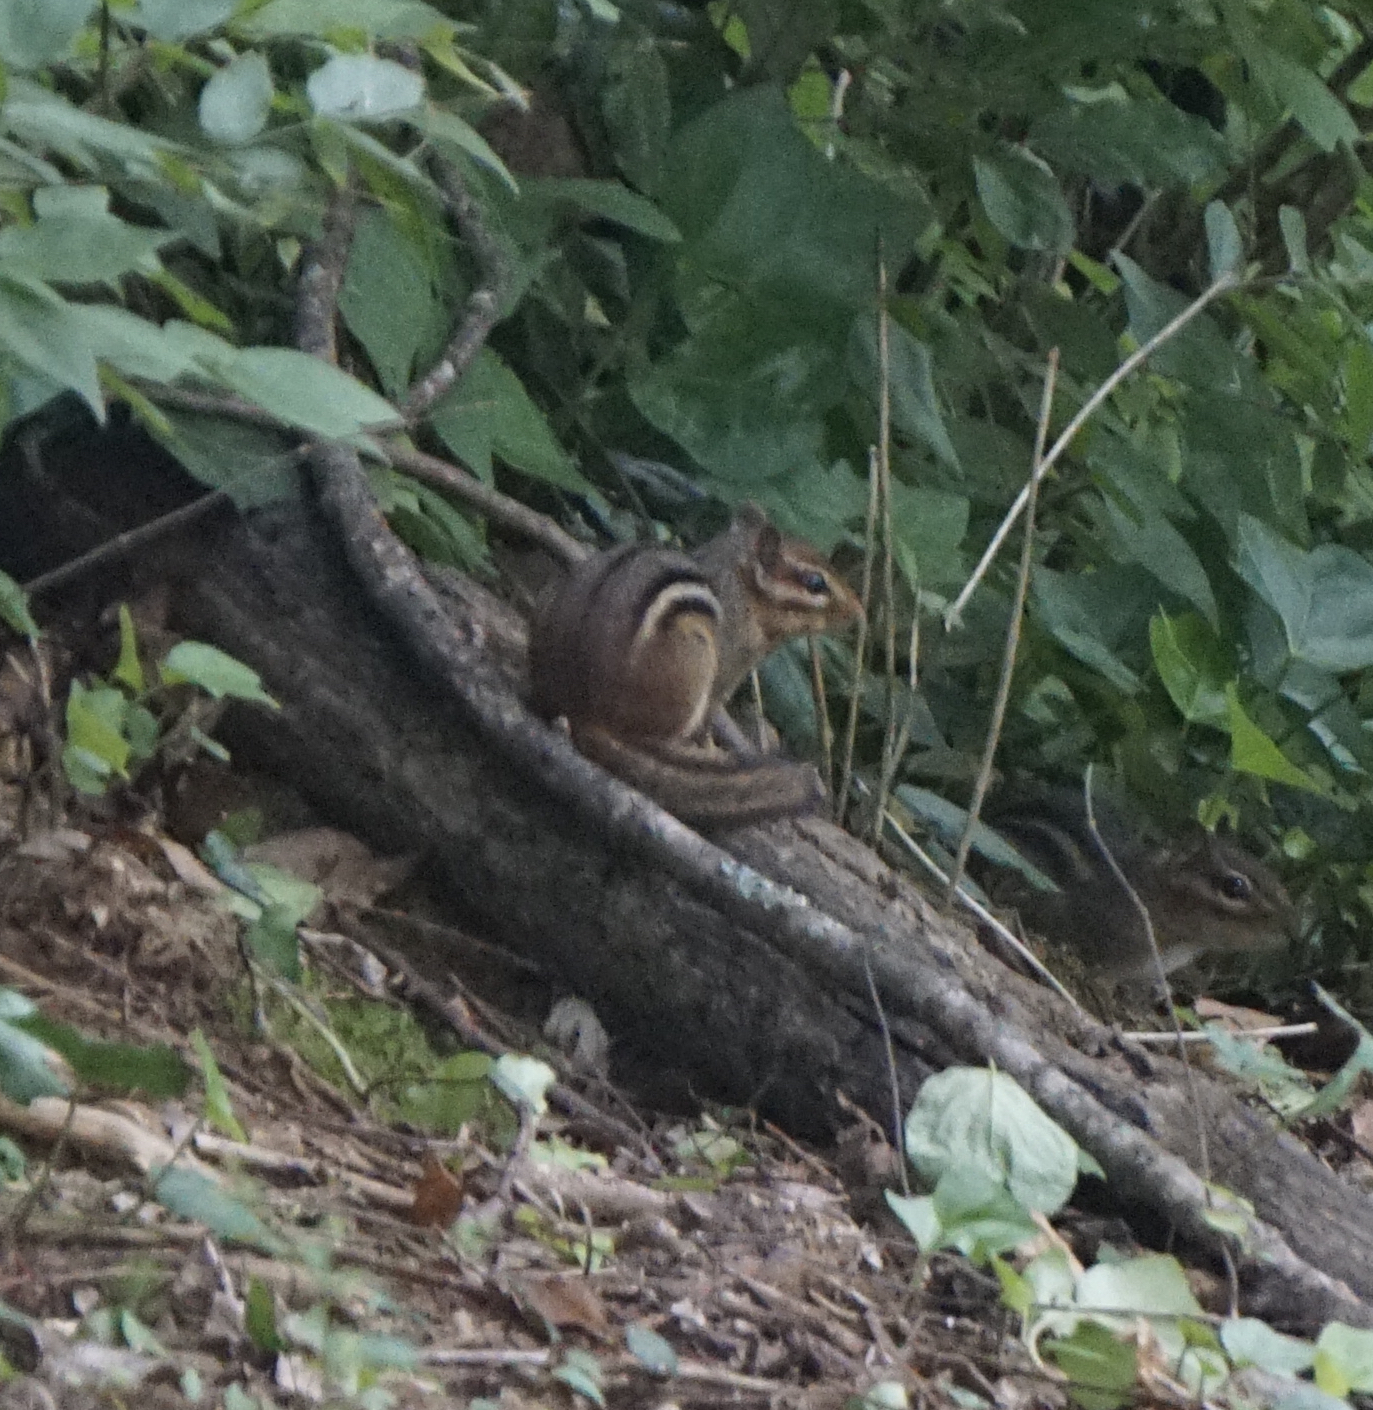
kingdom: Animalia
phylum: Chordata
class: Mammalia
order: Rodentia
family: Sciuridae
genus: Tamias
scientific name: Tamias striatus
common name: Eastern chipmunk
